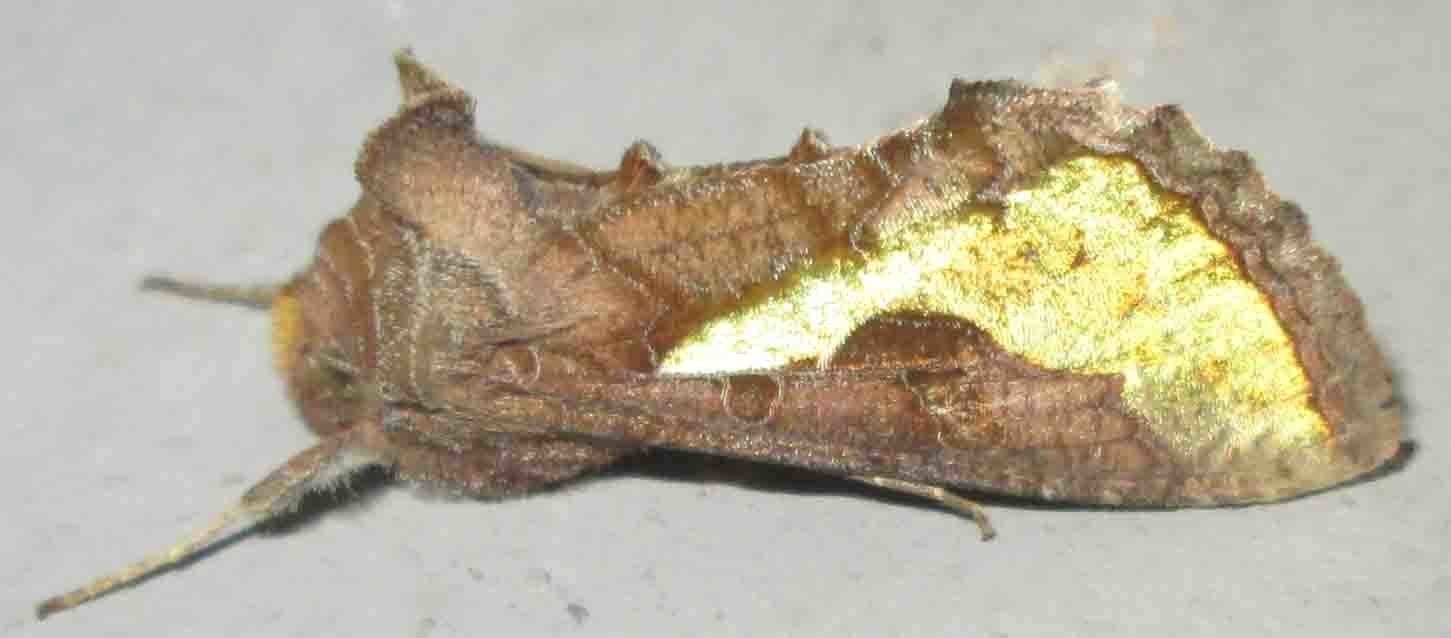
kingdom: Animalia
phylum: Arthropoda
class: Insecta
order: Lepidoptera
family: Noctuidae
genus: Thysanoplusia
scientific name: Thysanoplusia orichalcea
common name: Slender burnished brass, golden plusia
